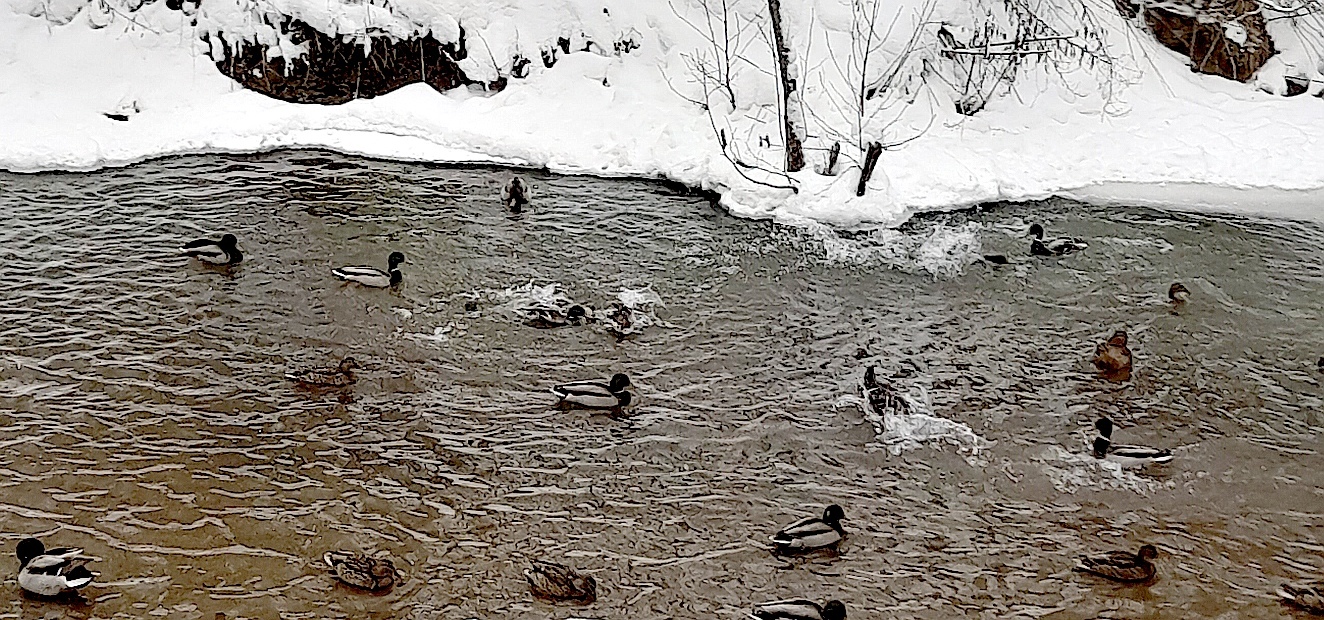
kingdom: Animalia
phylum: Chordata
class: Aves
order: Anseriformes
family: Anatidae
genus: Anas
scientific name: Anas platyrhynchos
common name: Mallard
